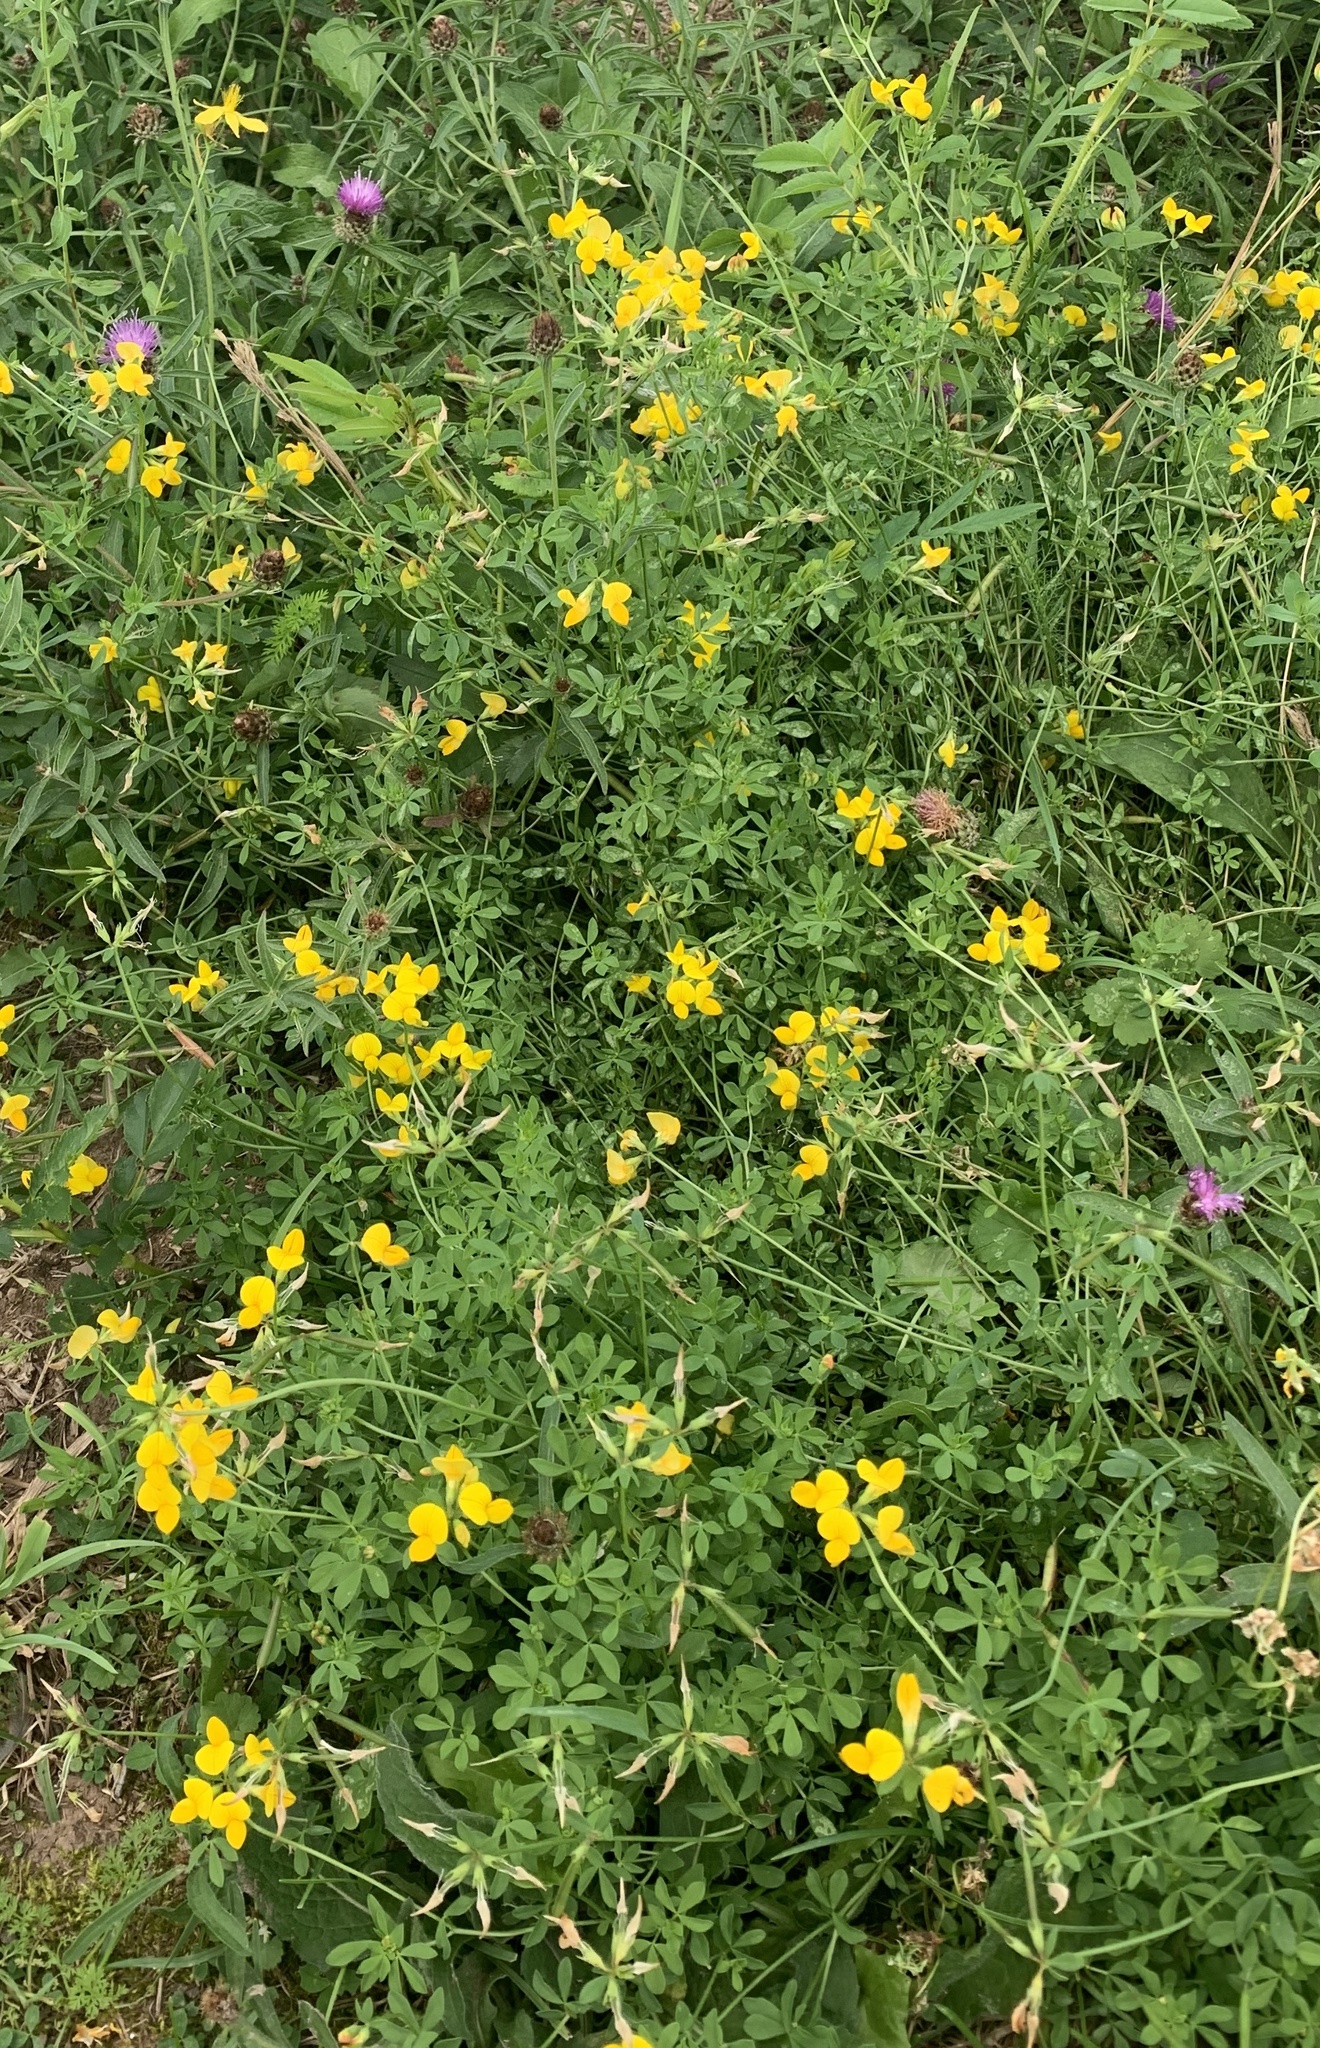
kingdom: Plantae
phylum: Tracheophyta
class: Magnoliopsida
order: Fabales
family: Fabaceae
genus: Lotus
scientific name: Lotus corniculatus
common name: Common bird's-foot-trefoil
